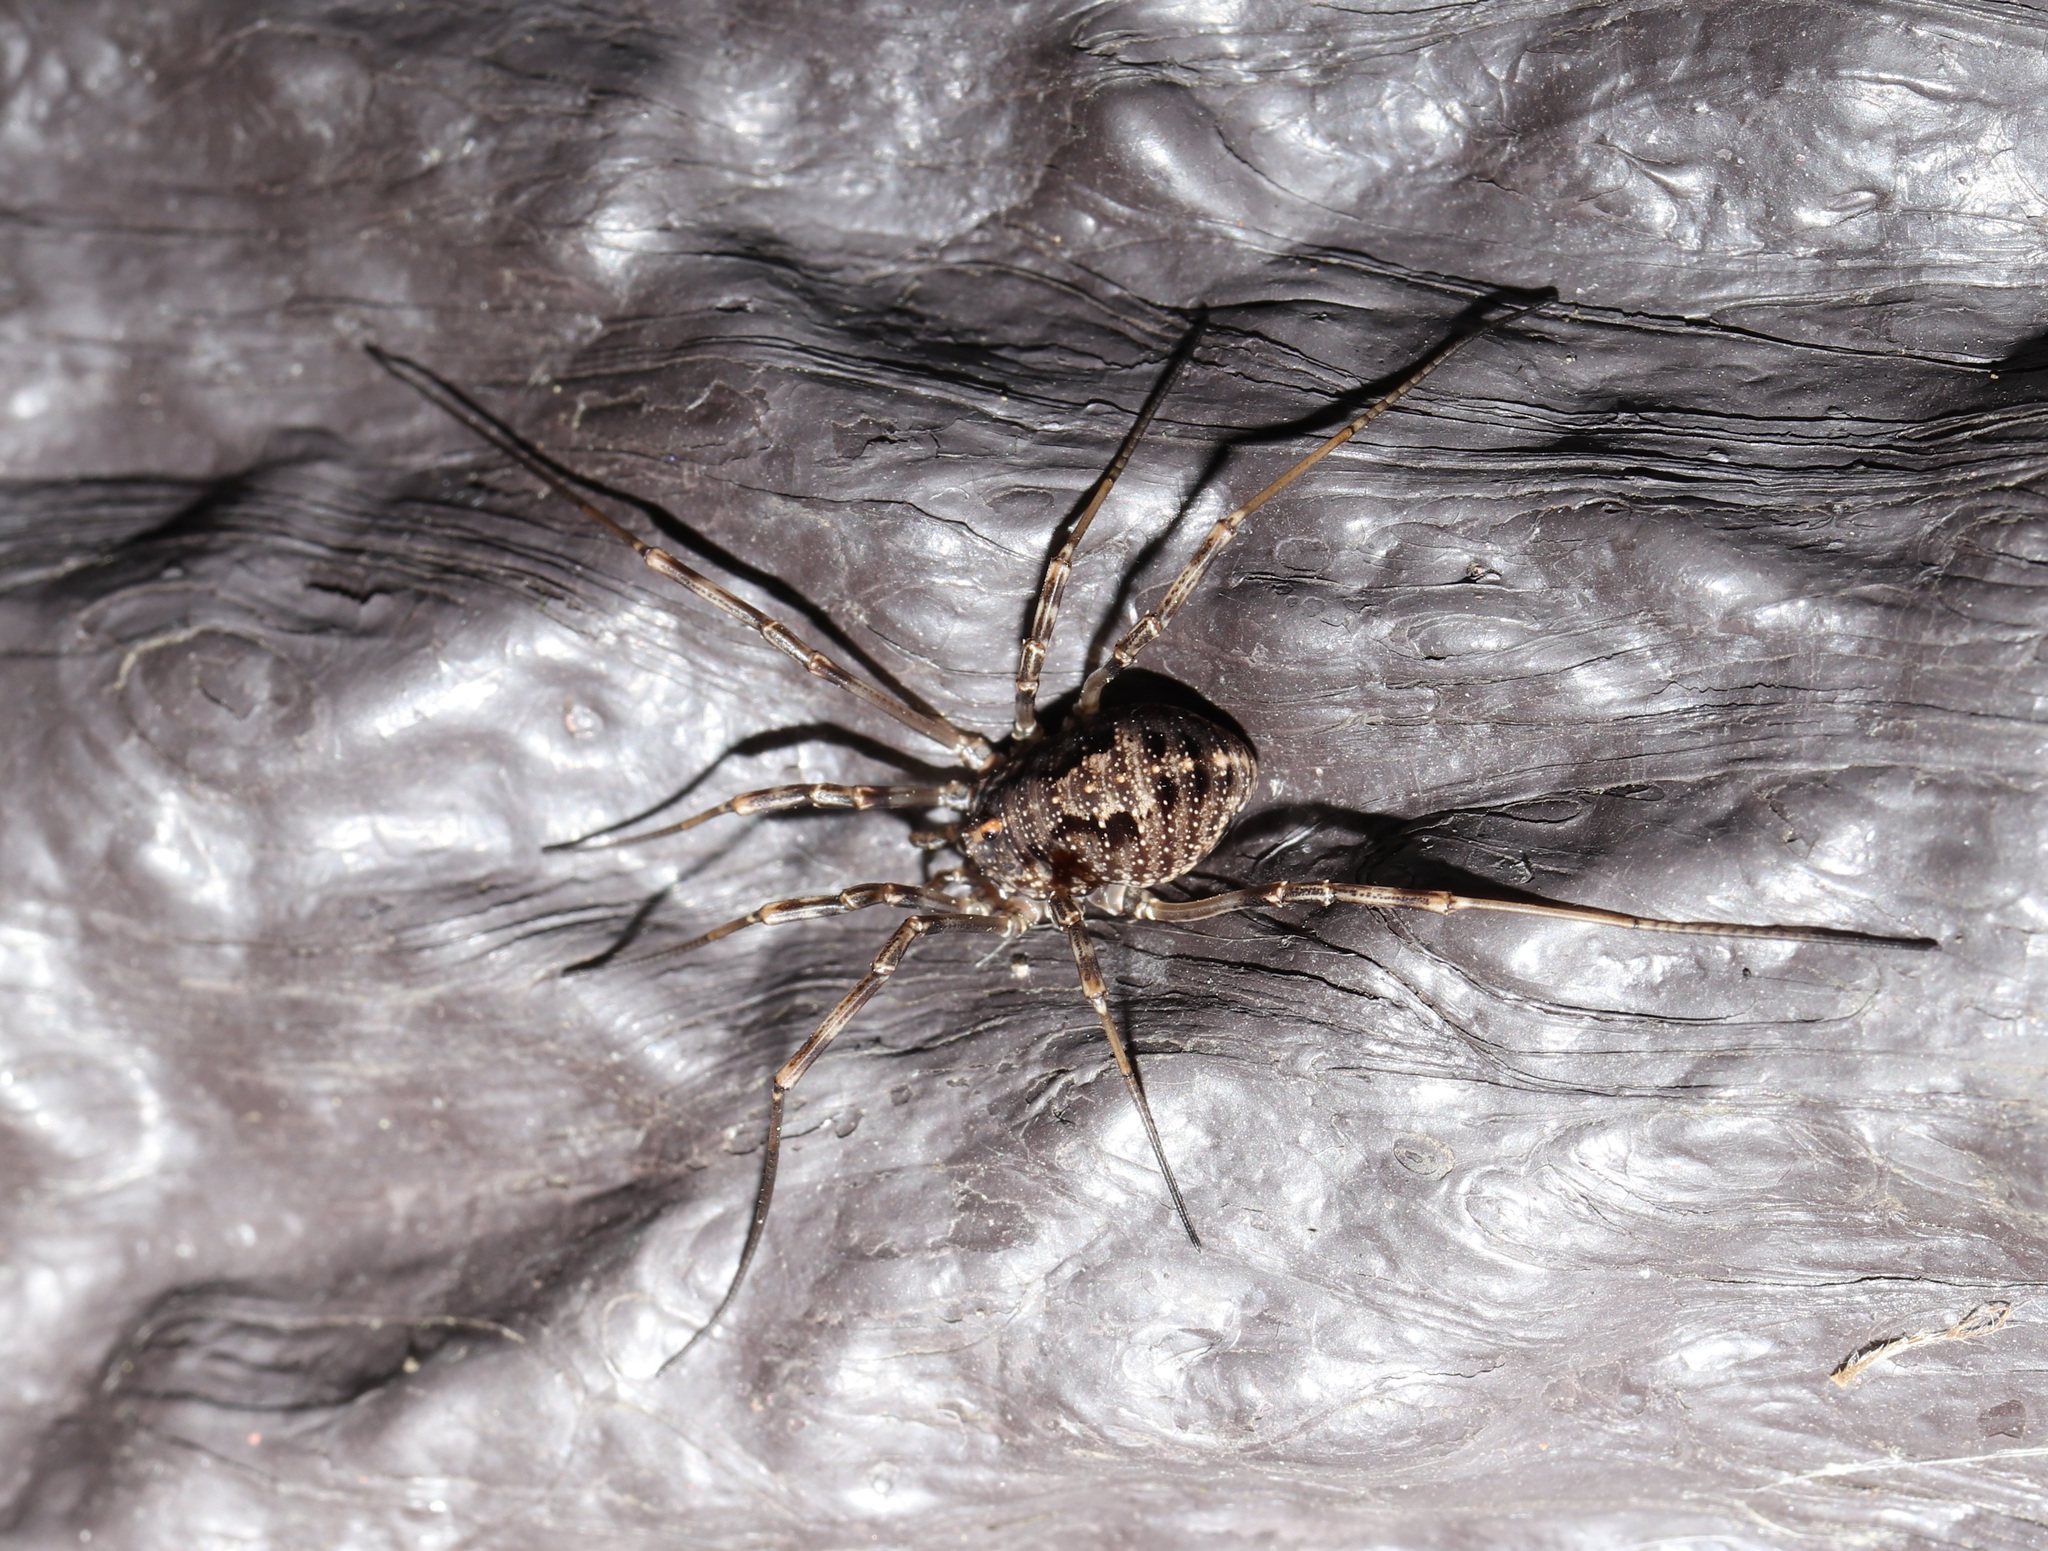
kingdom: Animalia
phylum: Arthropoda
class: Arachnida
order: Opiliones
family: Phalangiidae
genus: Himalphalangium
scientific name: Himalphalangium spinulatum
